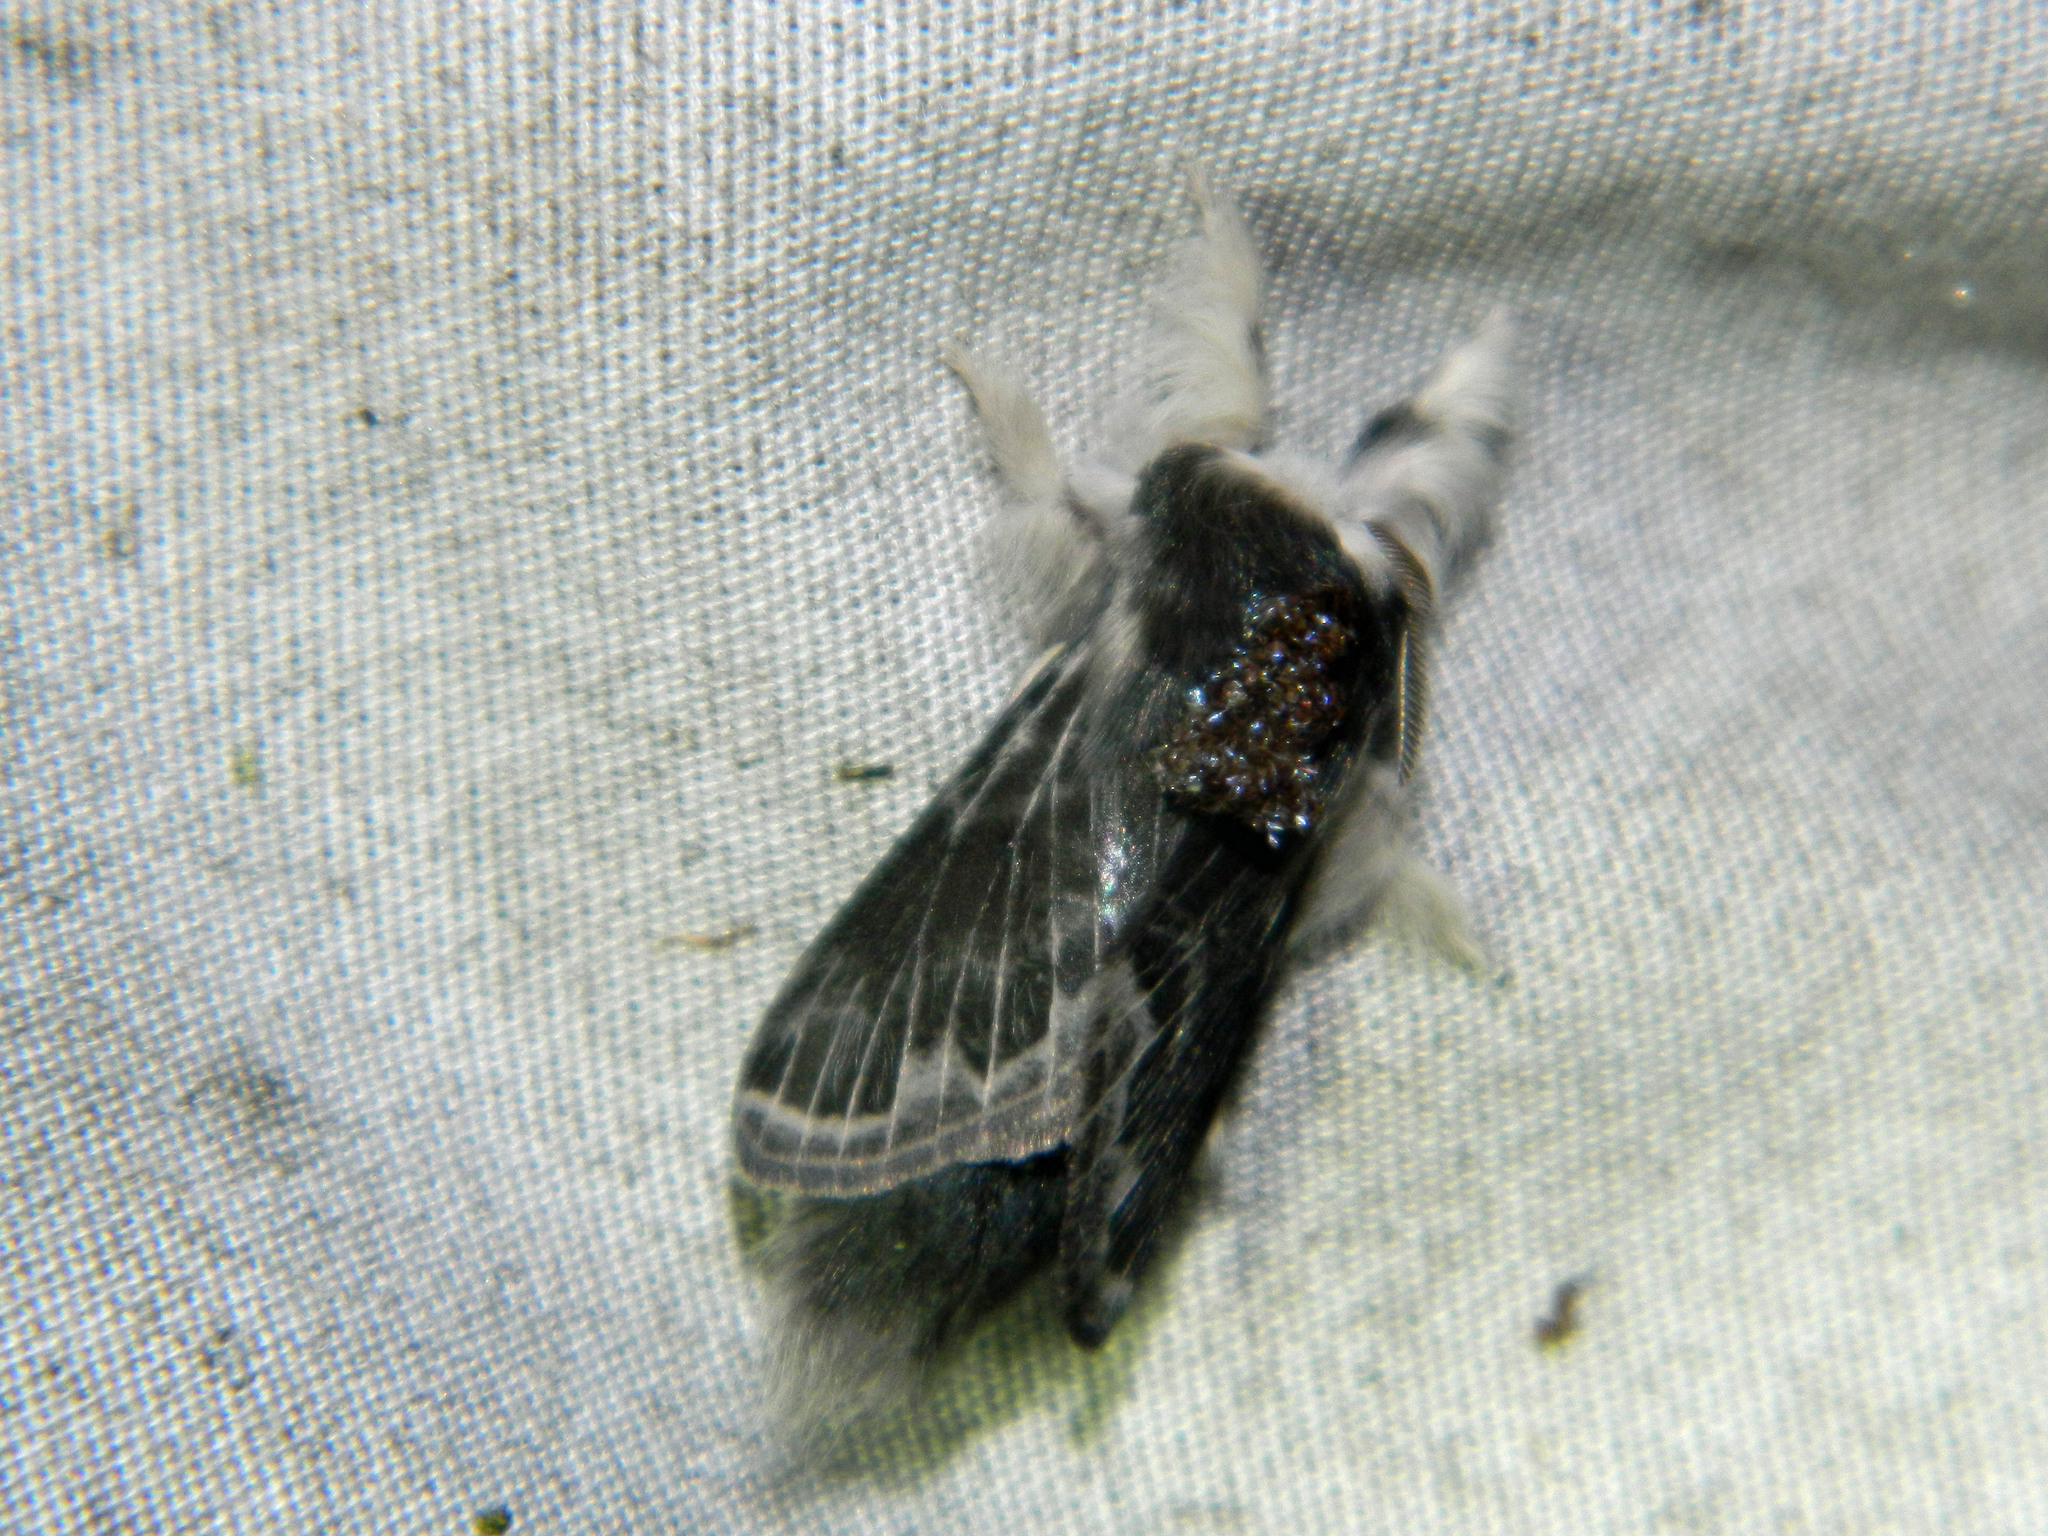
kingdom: Animalia
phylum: Arthropoda
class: Insecta
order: Lepidoptera
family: Lasiocampidae
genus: Tolype
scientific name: Tolype laricis
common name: Larch tolype moth
